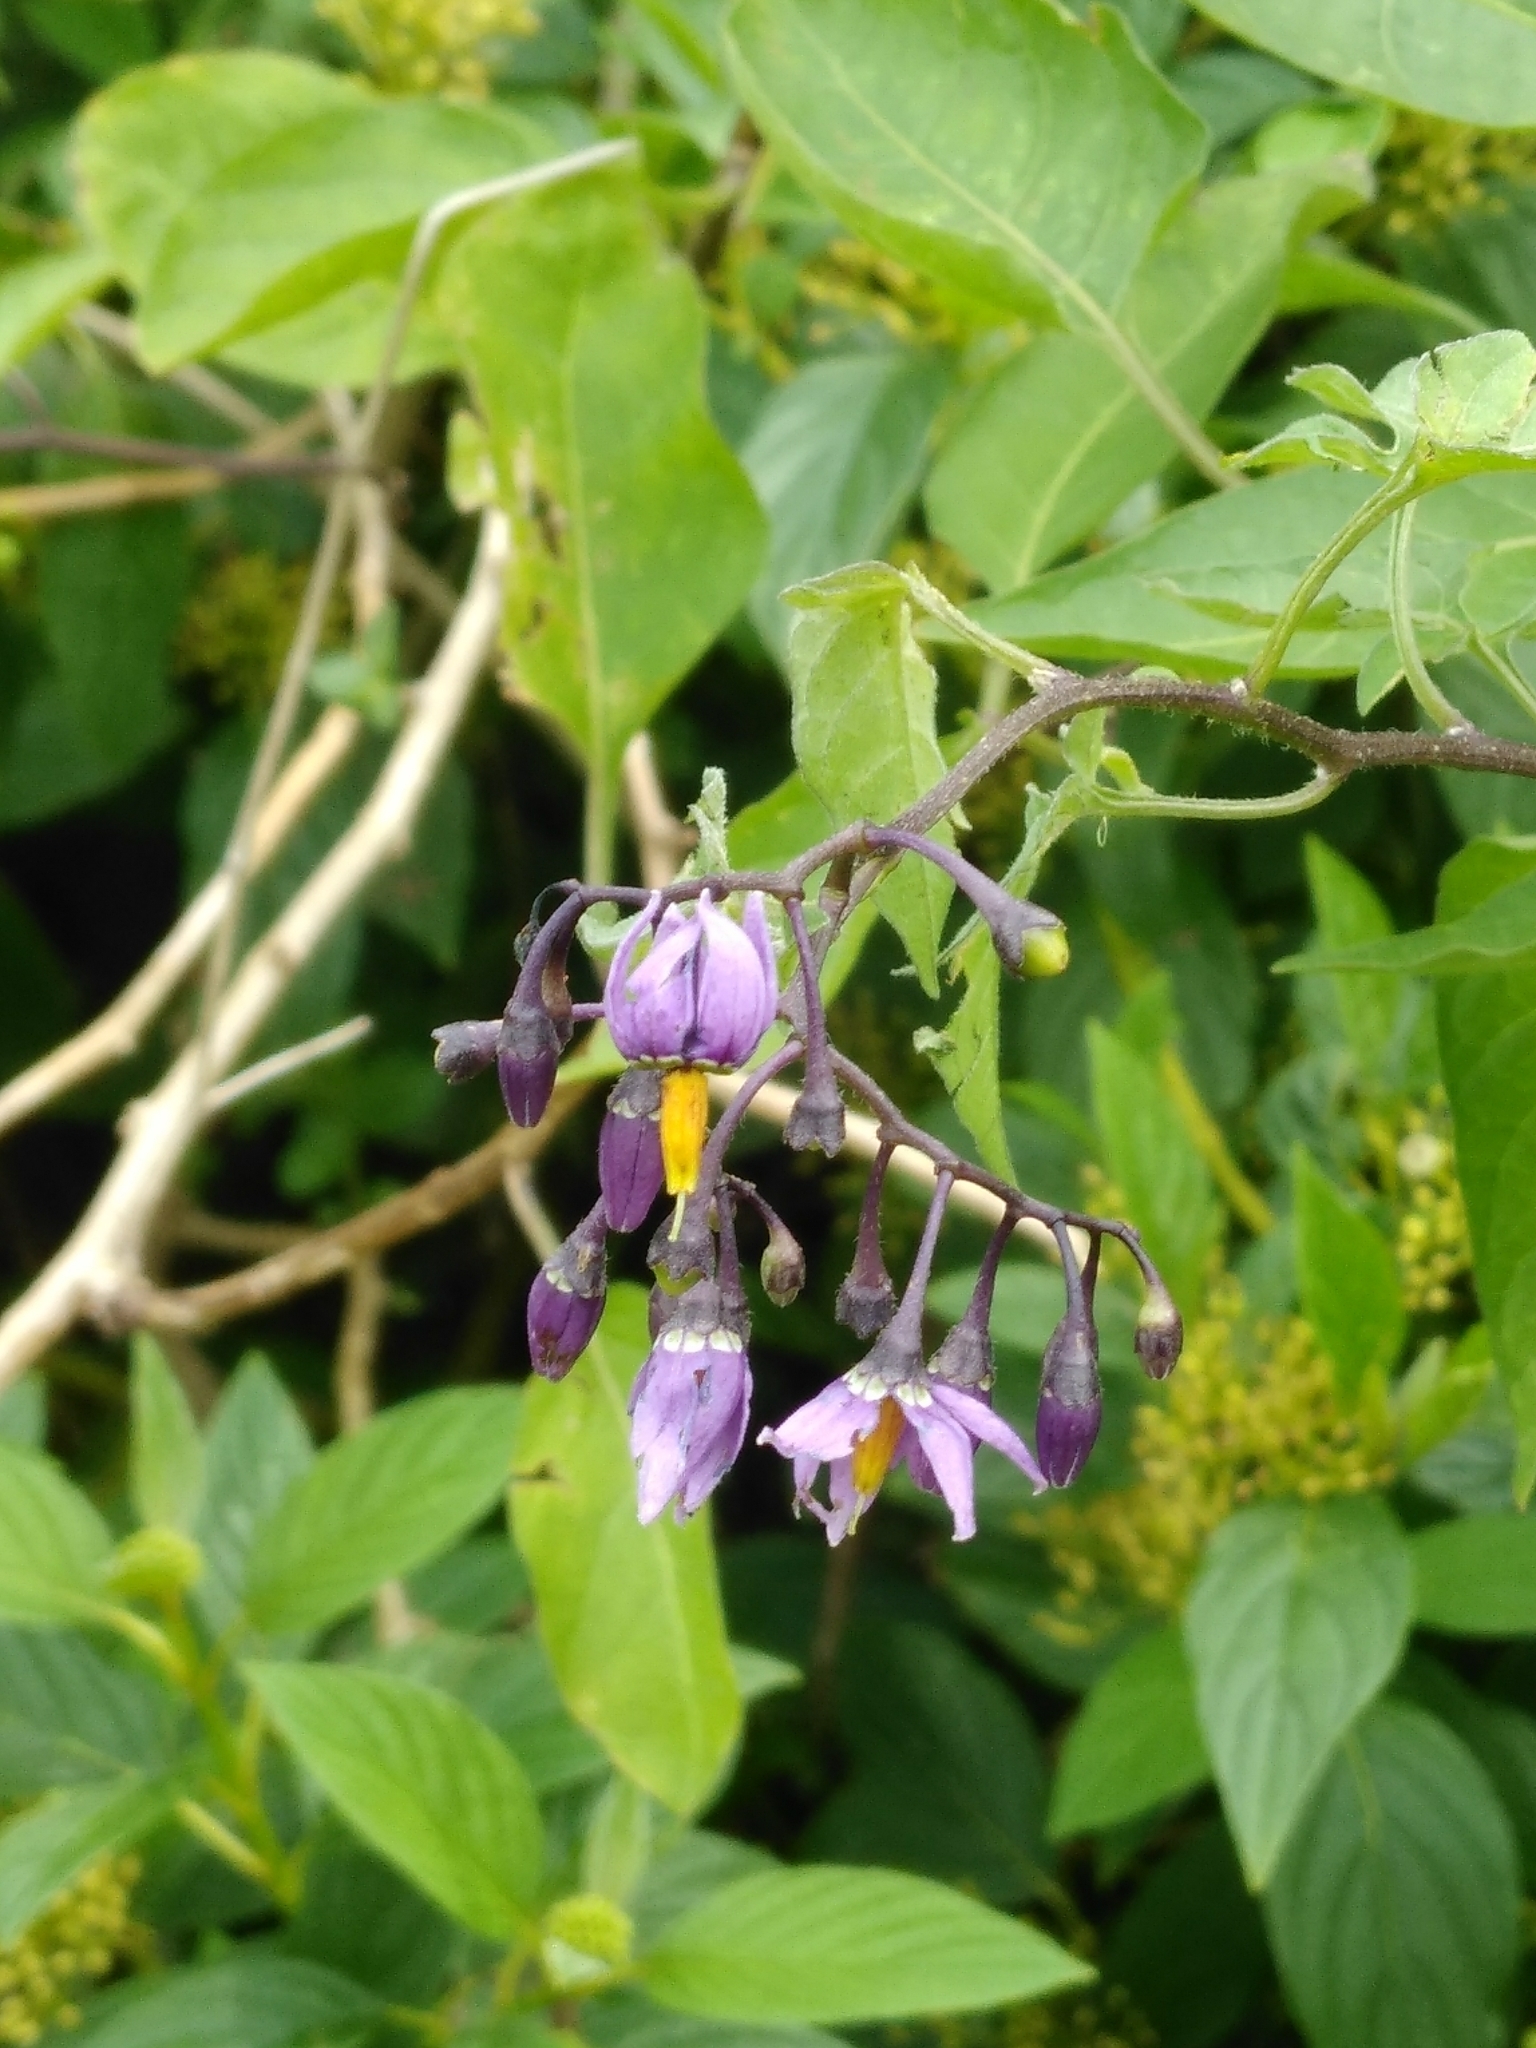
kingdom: Plantae
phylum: Tracheophyta
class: Magnoliopsida
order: Solanales
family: Solanaceae
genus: Solanum
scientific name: Solanum dulcamara
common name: Climbing nightshade
